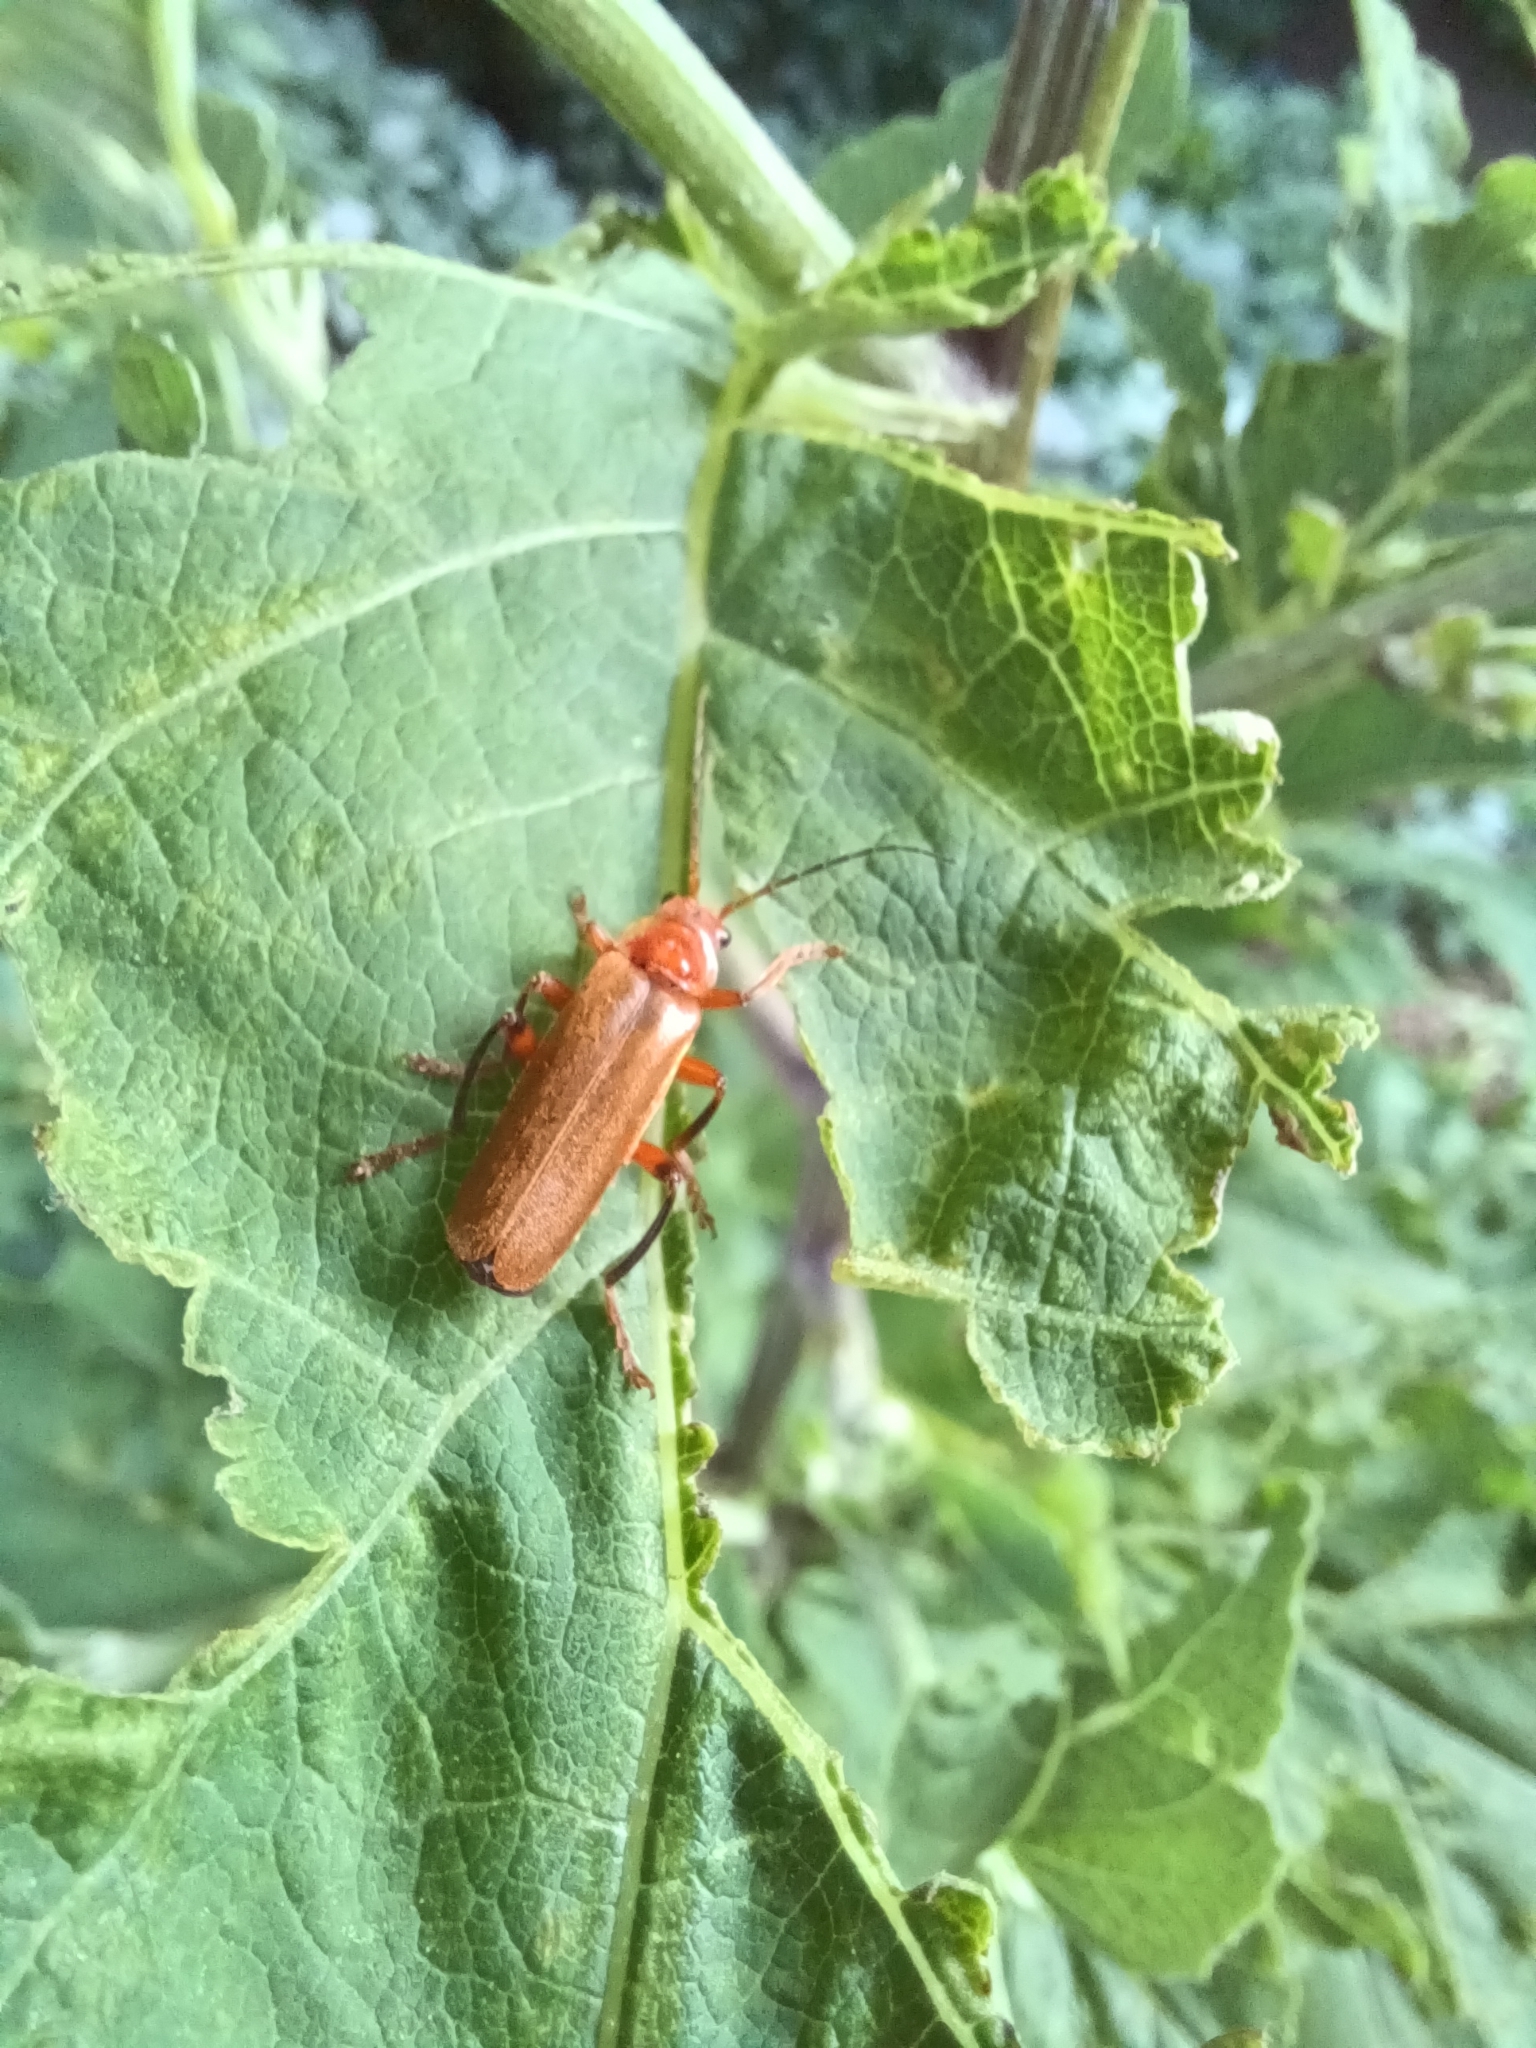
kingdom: Animalia
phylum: Arthropoda
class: Insecta
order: Coleoptera
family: Cantharidae
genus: Cantharis
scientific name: Cantharis livida
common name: Livid soldier beetle
